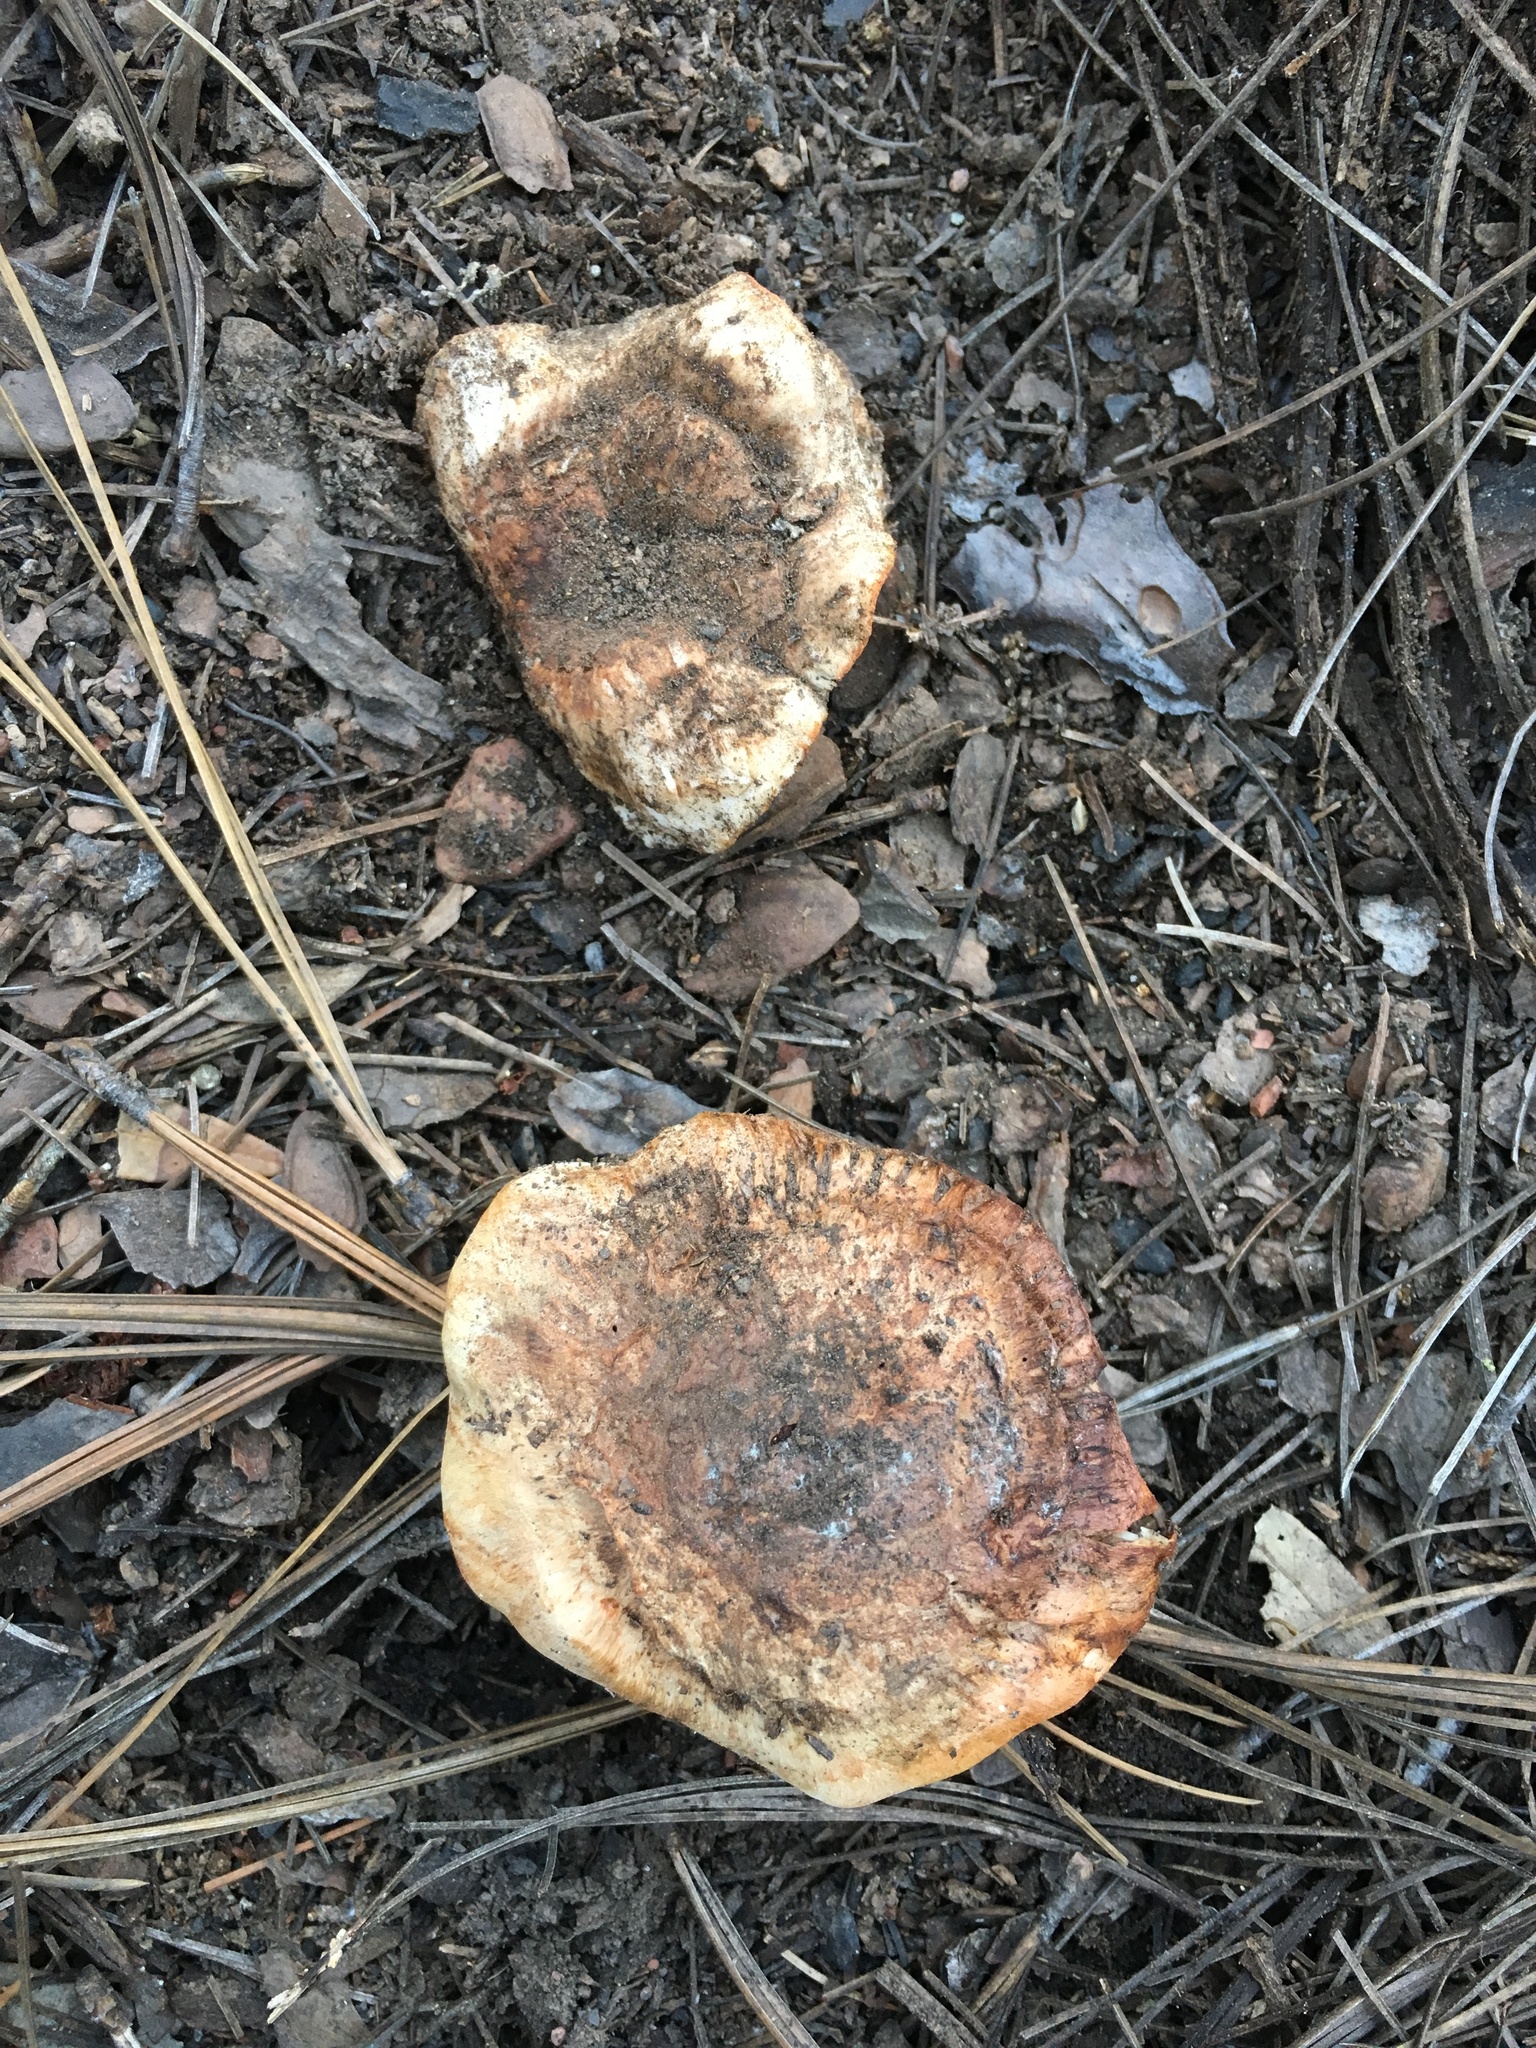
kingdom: Fungi
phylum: Basidiomycota
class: Agaricomycetes
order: Agaricales
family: Tricholomataceae
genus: Tricholoma
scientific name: Tricholoma focale
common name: Booted knight
